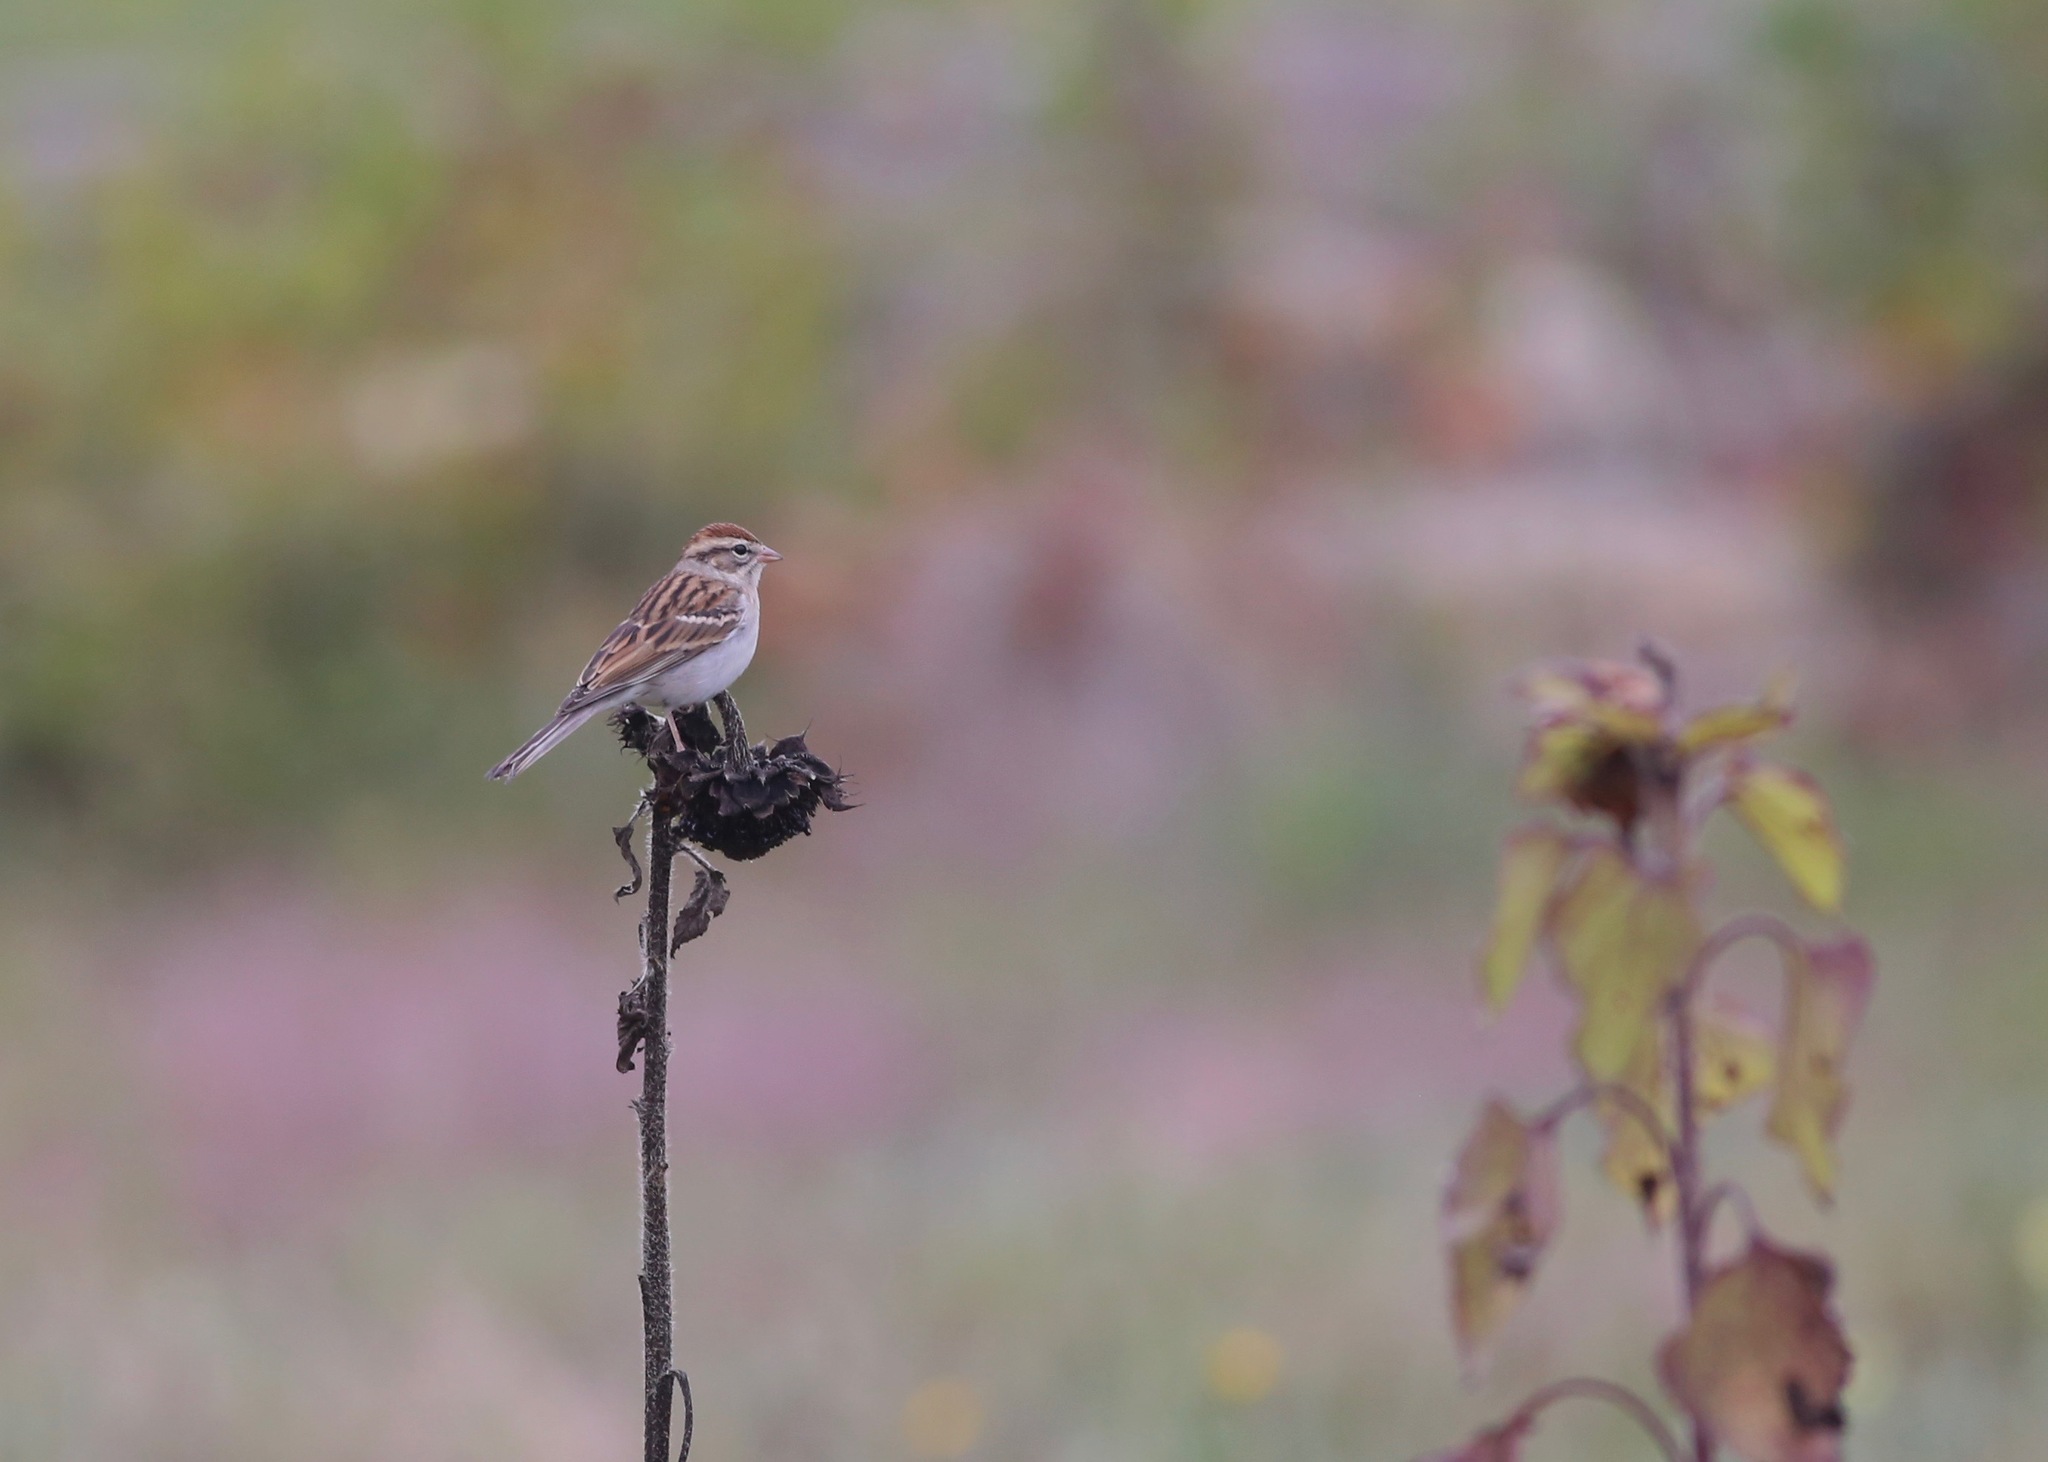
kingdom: Animalia
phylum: Chordata
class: Aves
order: Passeriformes
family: Passerellidae
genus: Spizella
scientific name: Spizella passerina
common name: Chipping sparrow
